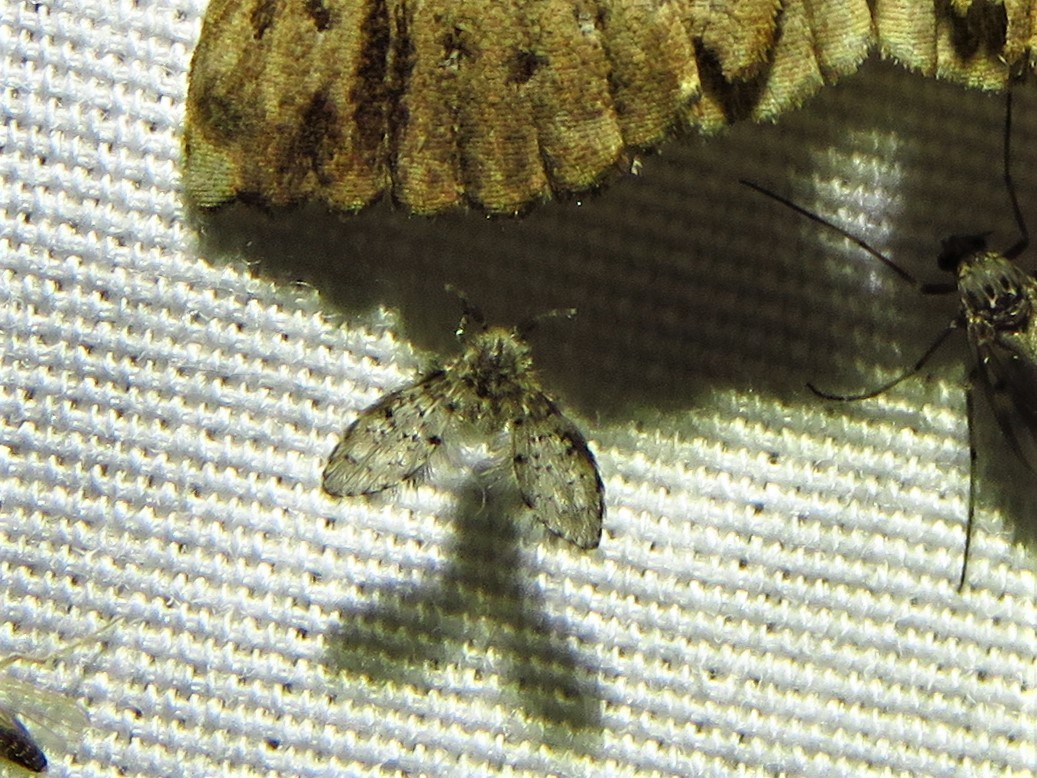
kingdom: Animalia
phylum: Arthropoda
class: Insecta
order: Diptera
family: Psychodidae
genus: Telmatoscopus
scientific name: Telmatoscopus furcatus
